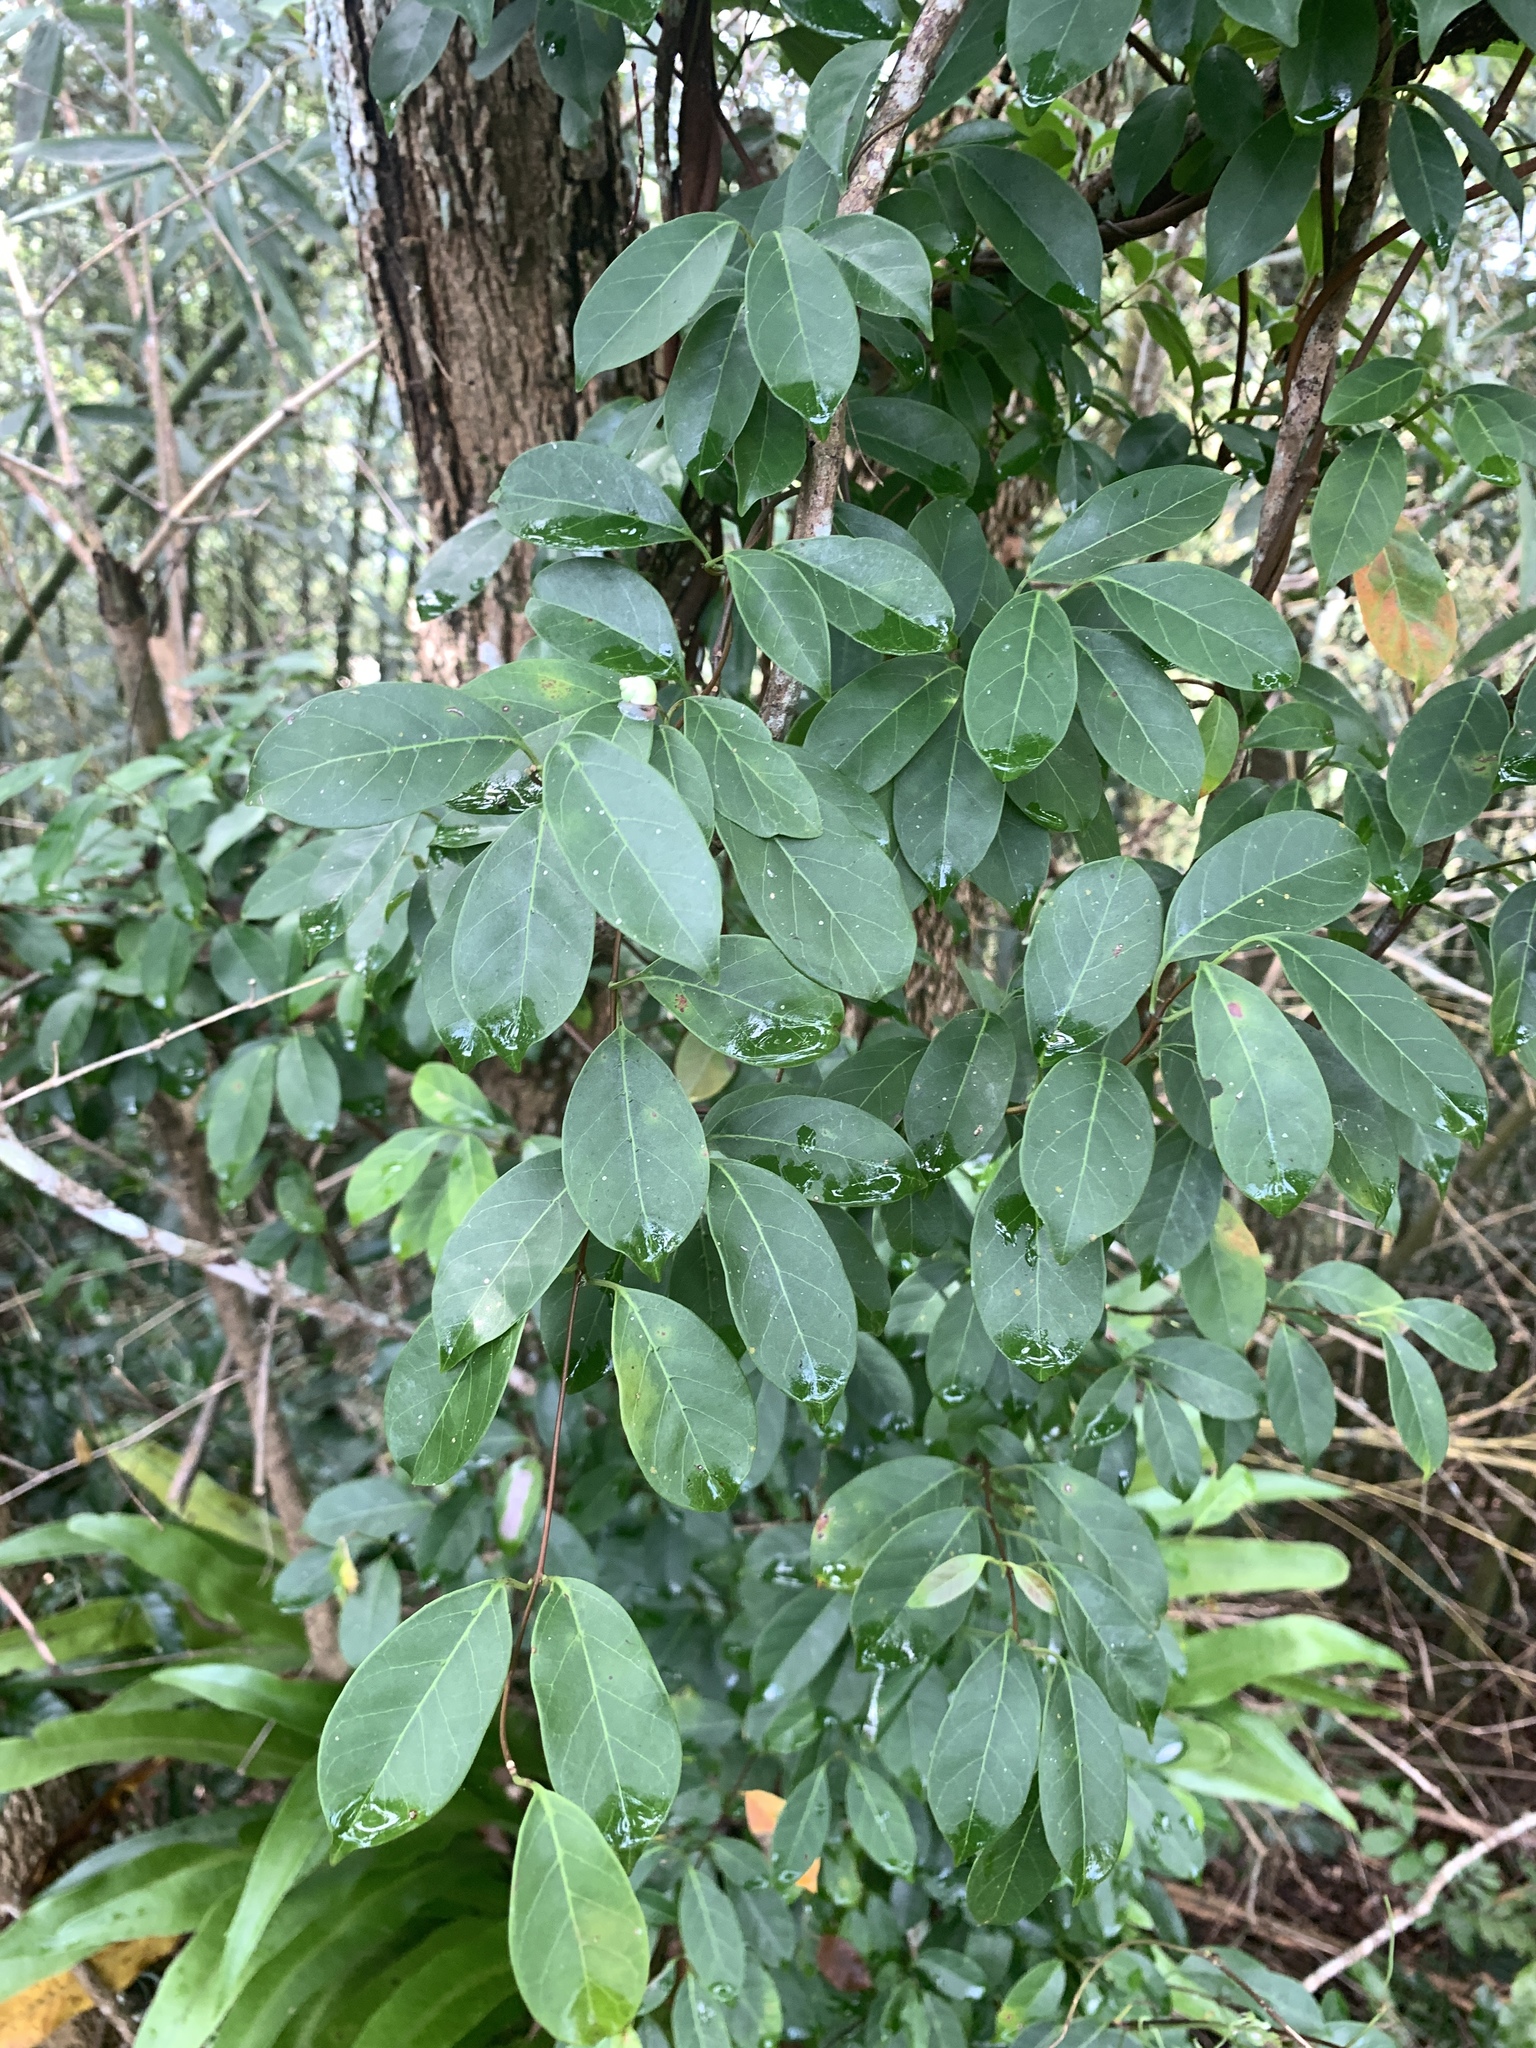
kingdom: Plantae
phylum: Tracheophyta
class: Magnoliopsida
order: Gentianales
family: Apocynaceae
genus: Urceola
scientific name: Urceola rosea
